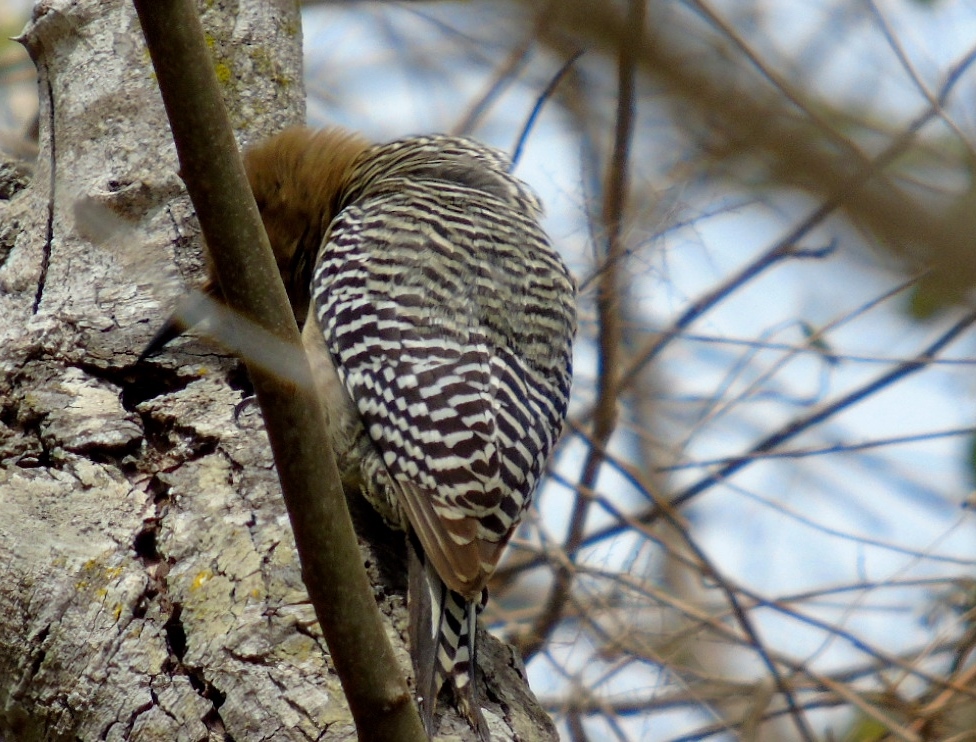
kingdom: Animalia
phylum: Chordata
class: Aves
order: Piciformes
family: Picidae
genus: Melanerpes
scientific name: Melanerpes uropygialis
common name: Gila woodpecker
